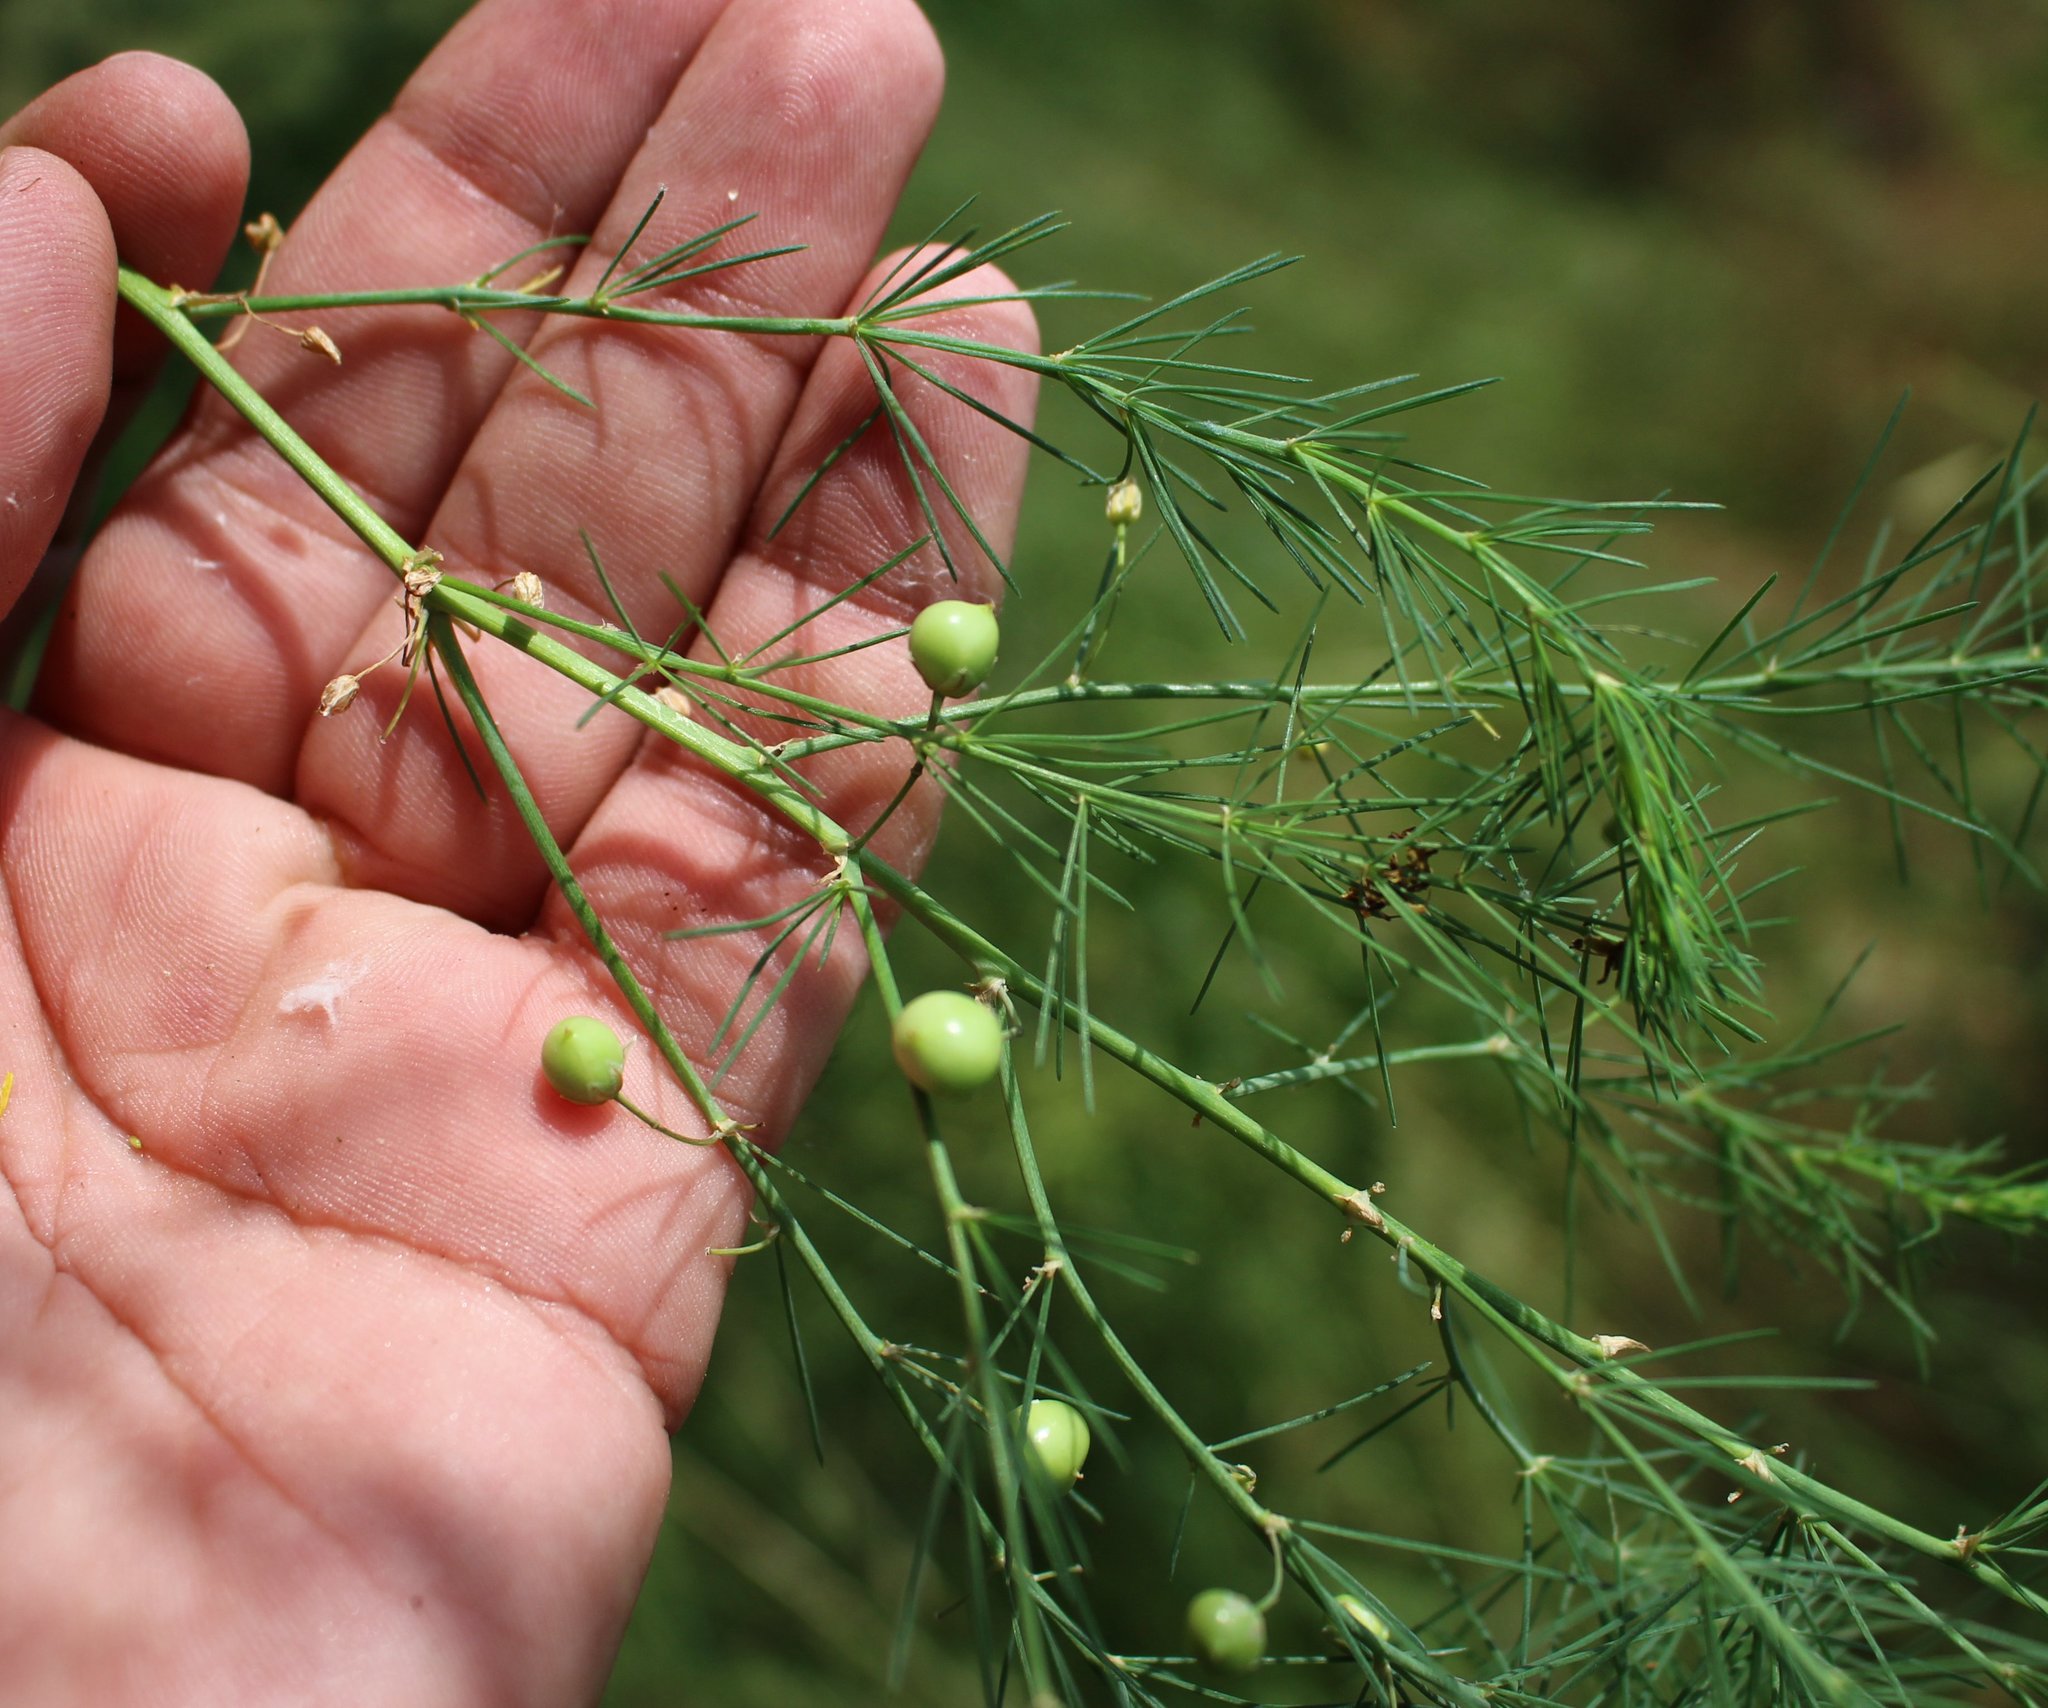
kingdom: Plantae
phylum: Tracheophyta
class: Liliopsida
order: Asparagales
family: Asparagaceae
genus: Asparagus
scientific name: Asparagus verticillatus
